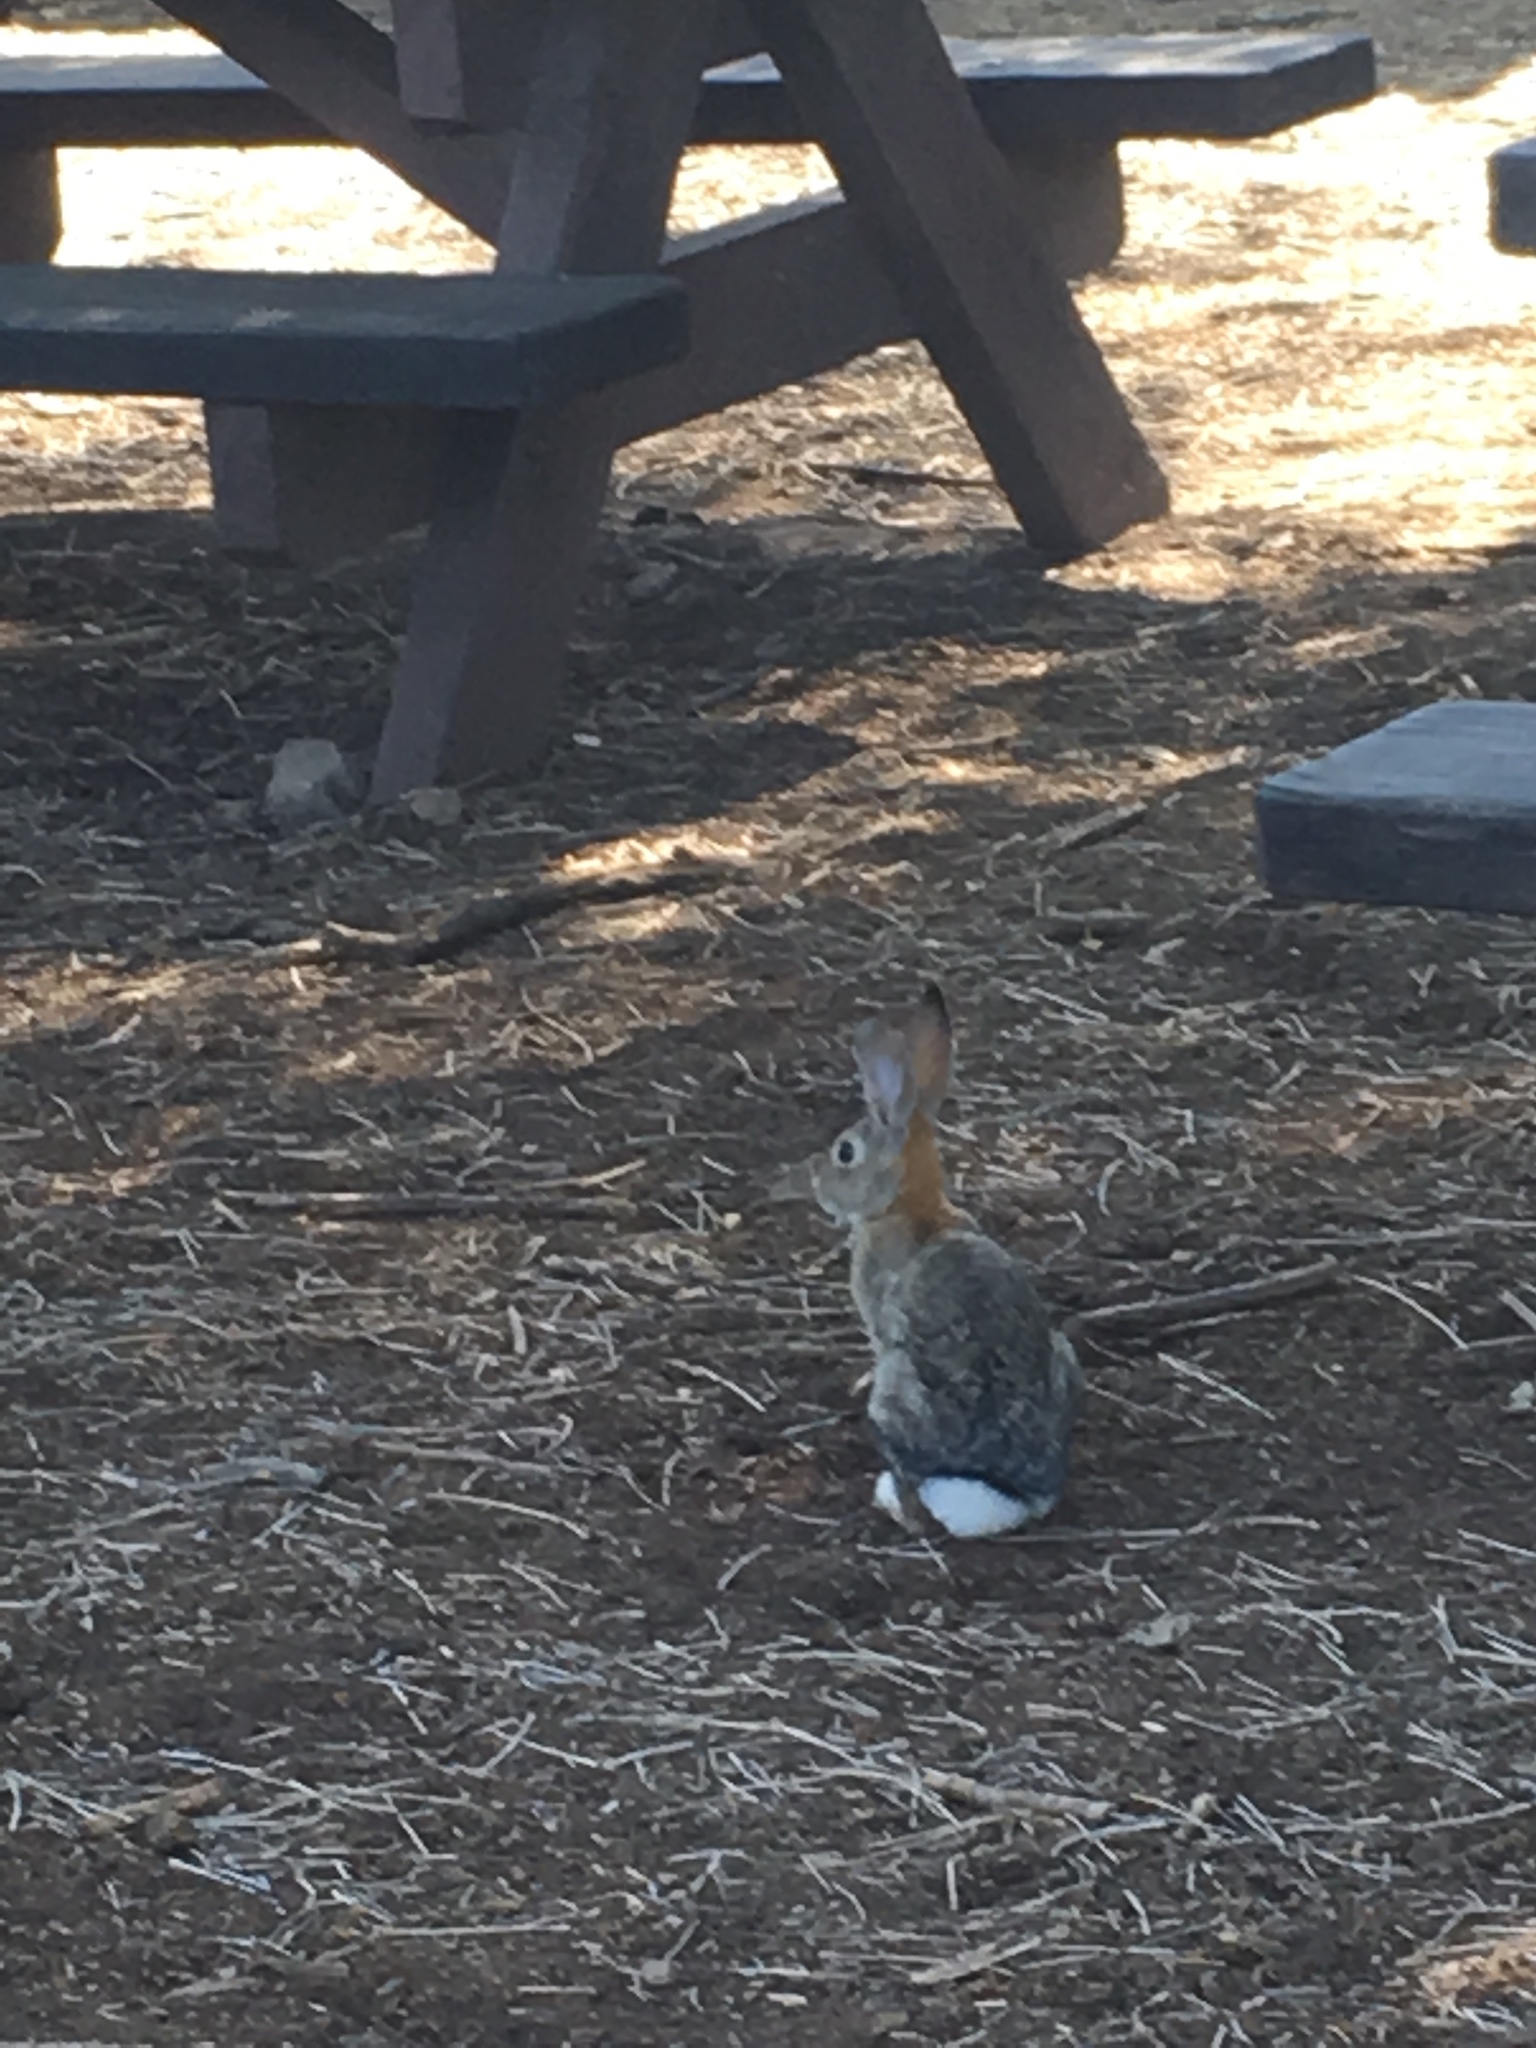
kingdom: Animalia
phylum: Chordata
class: Mammalia
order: Lagomorpha
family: Leporidae
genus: Sylvilagus
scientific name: Sylvilagus audubonii
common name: Desert cottontail
